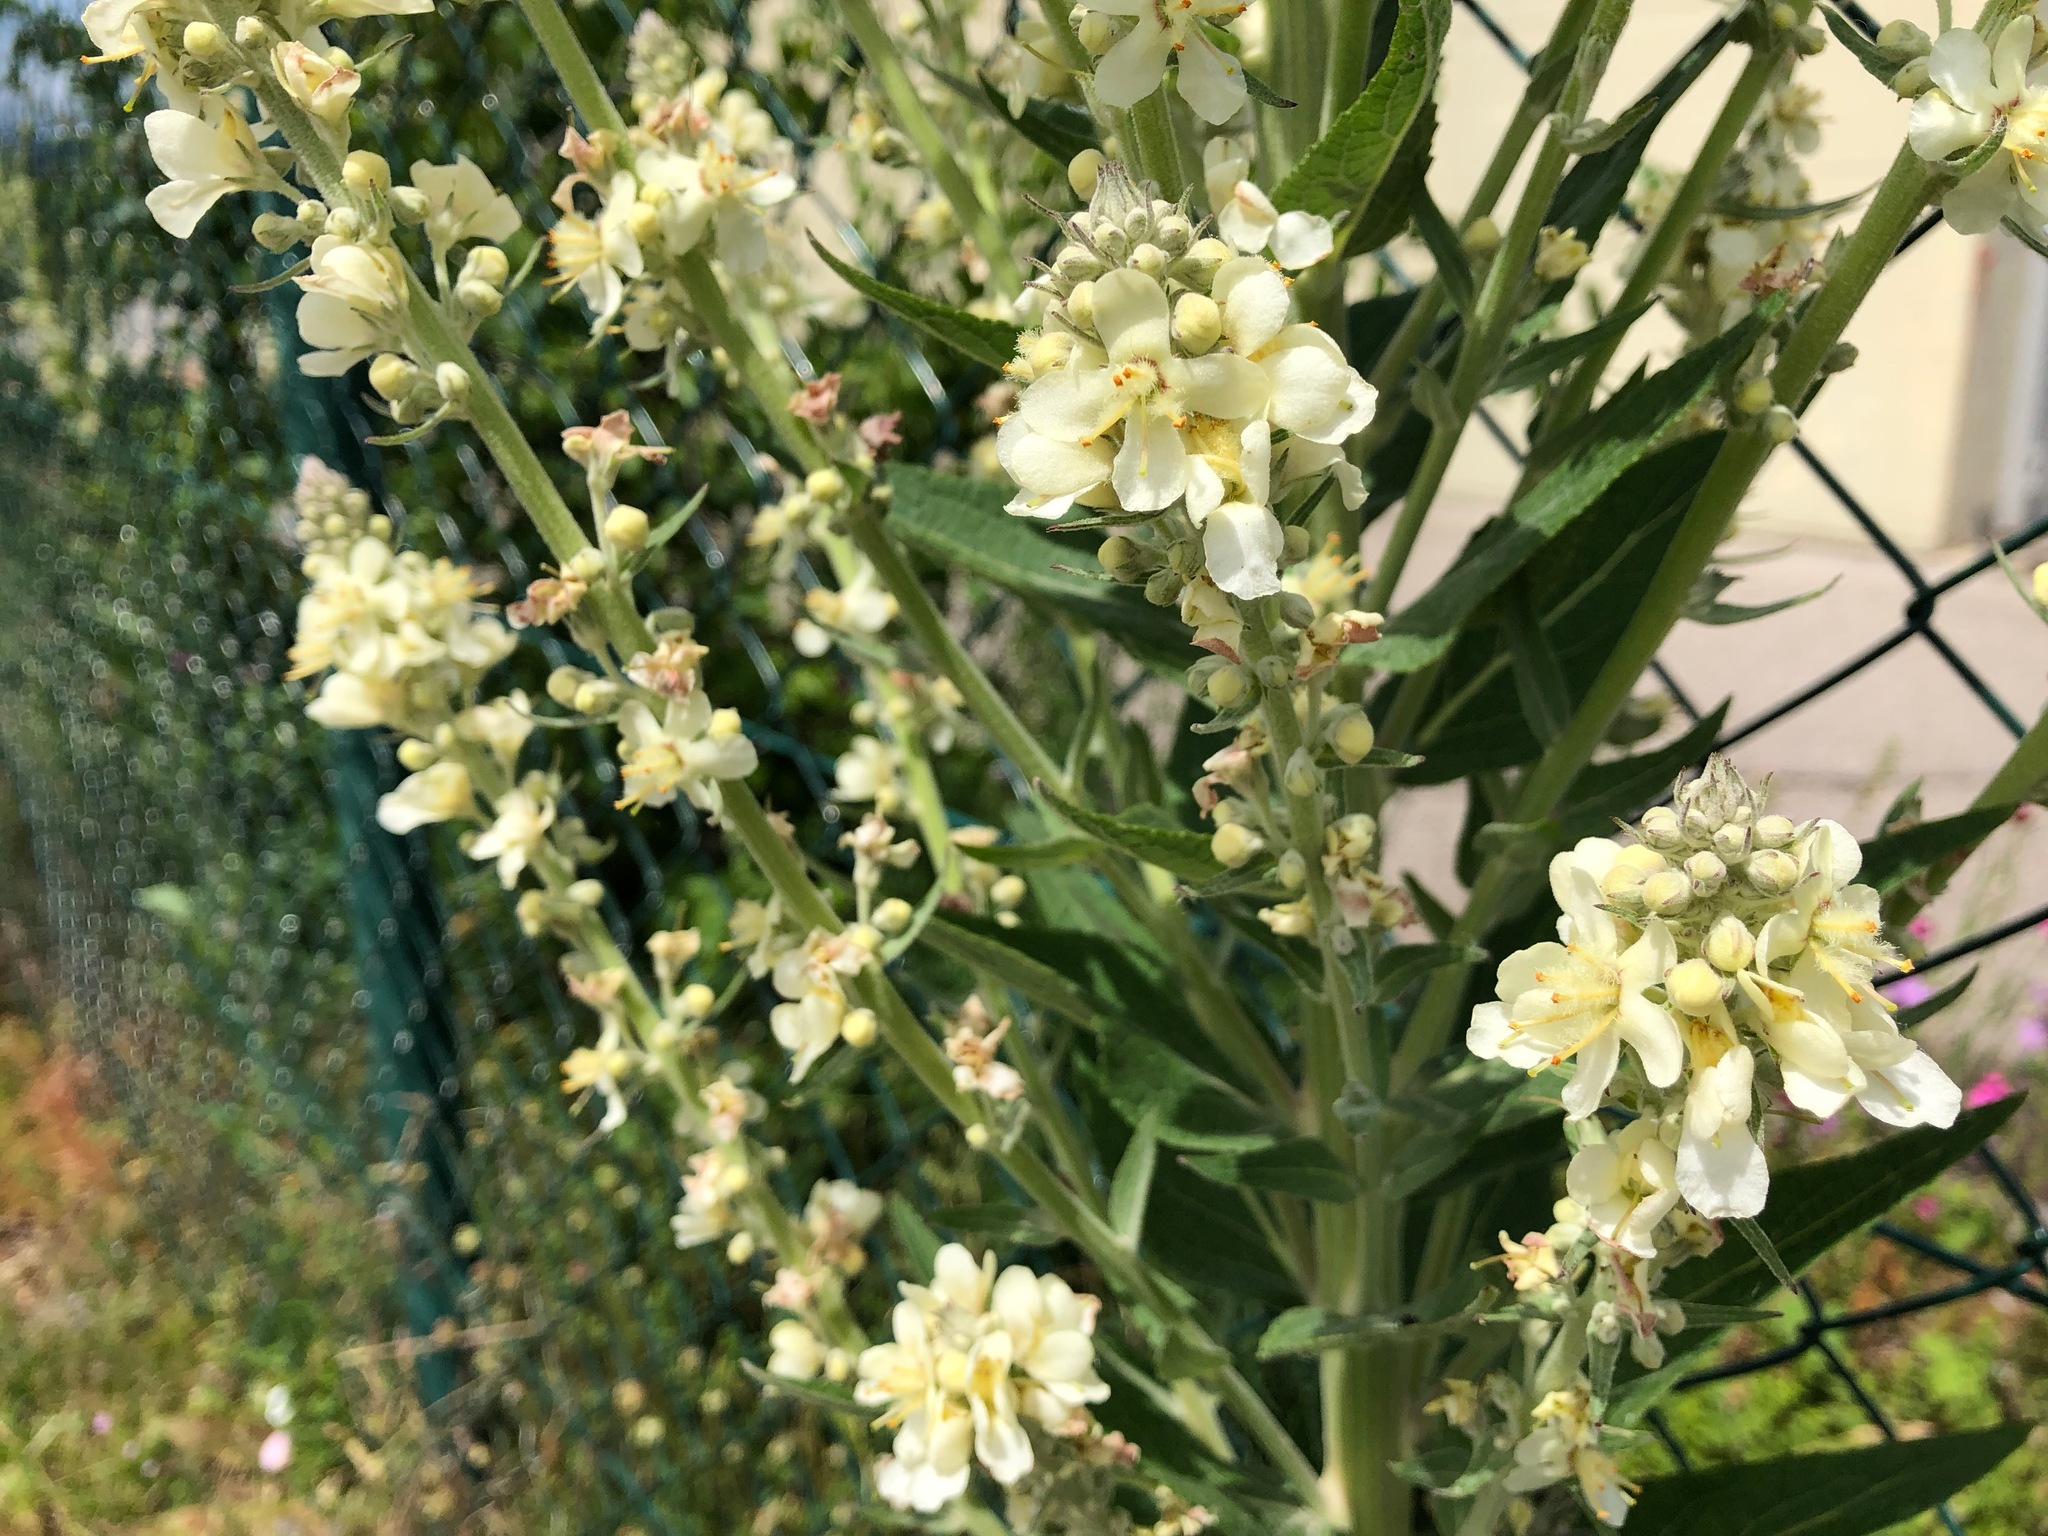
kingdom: Plantae
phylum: Tracheophyta
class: Magnoliopsida
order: Lamiales
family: Scrophulariaceae
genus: Verbascum
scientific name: Verbascum lychnitis
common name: White mullein
